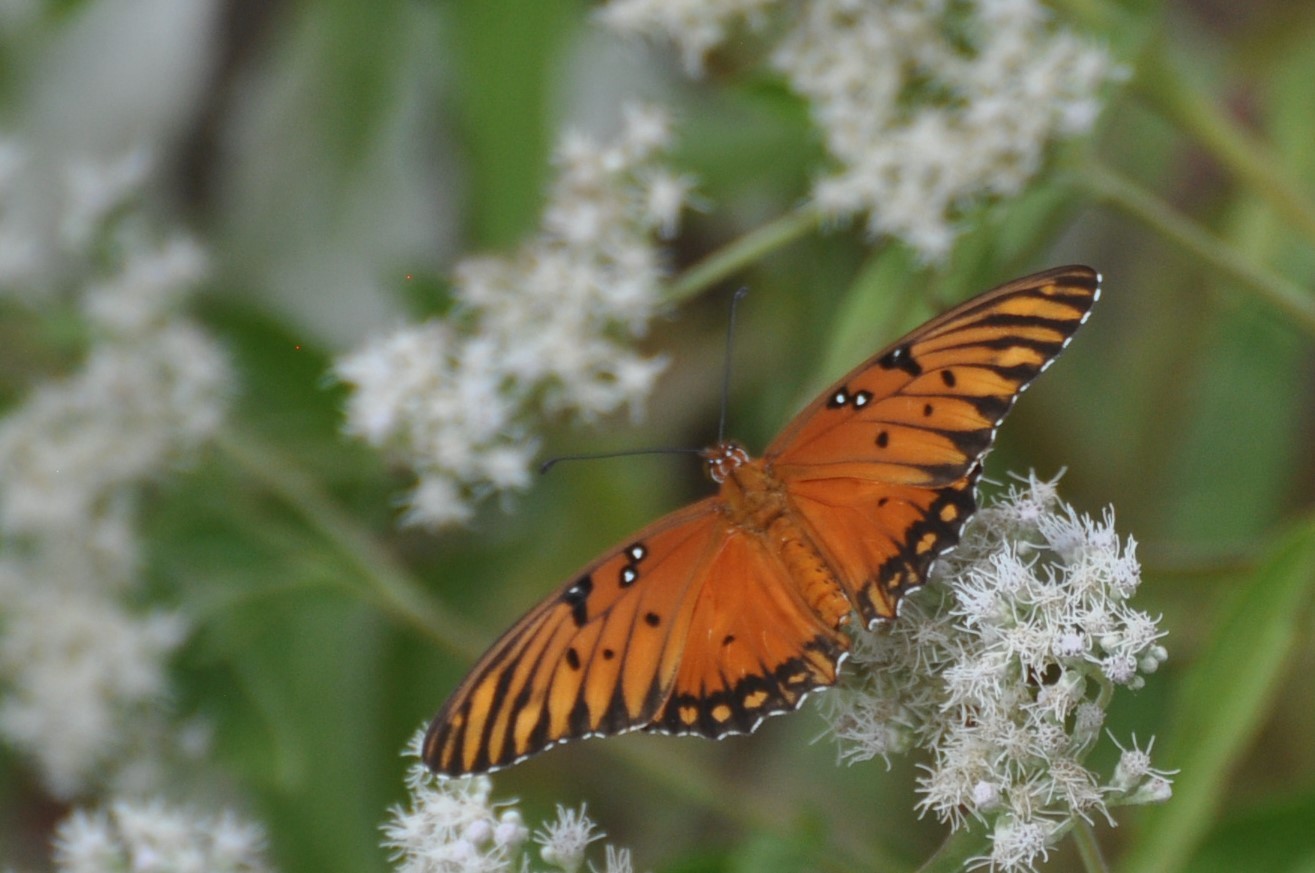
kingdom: Animalia
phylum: Arthropoda
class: Insecta
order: Lepidoptera
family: Nymphalidae
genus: Dione
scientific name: Dione vanillae
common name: Gulf fritillary
